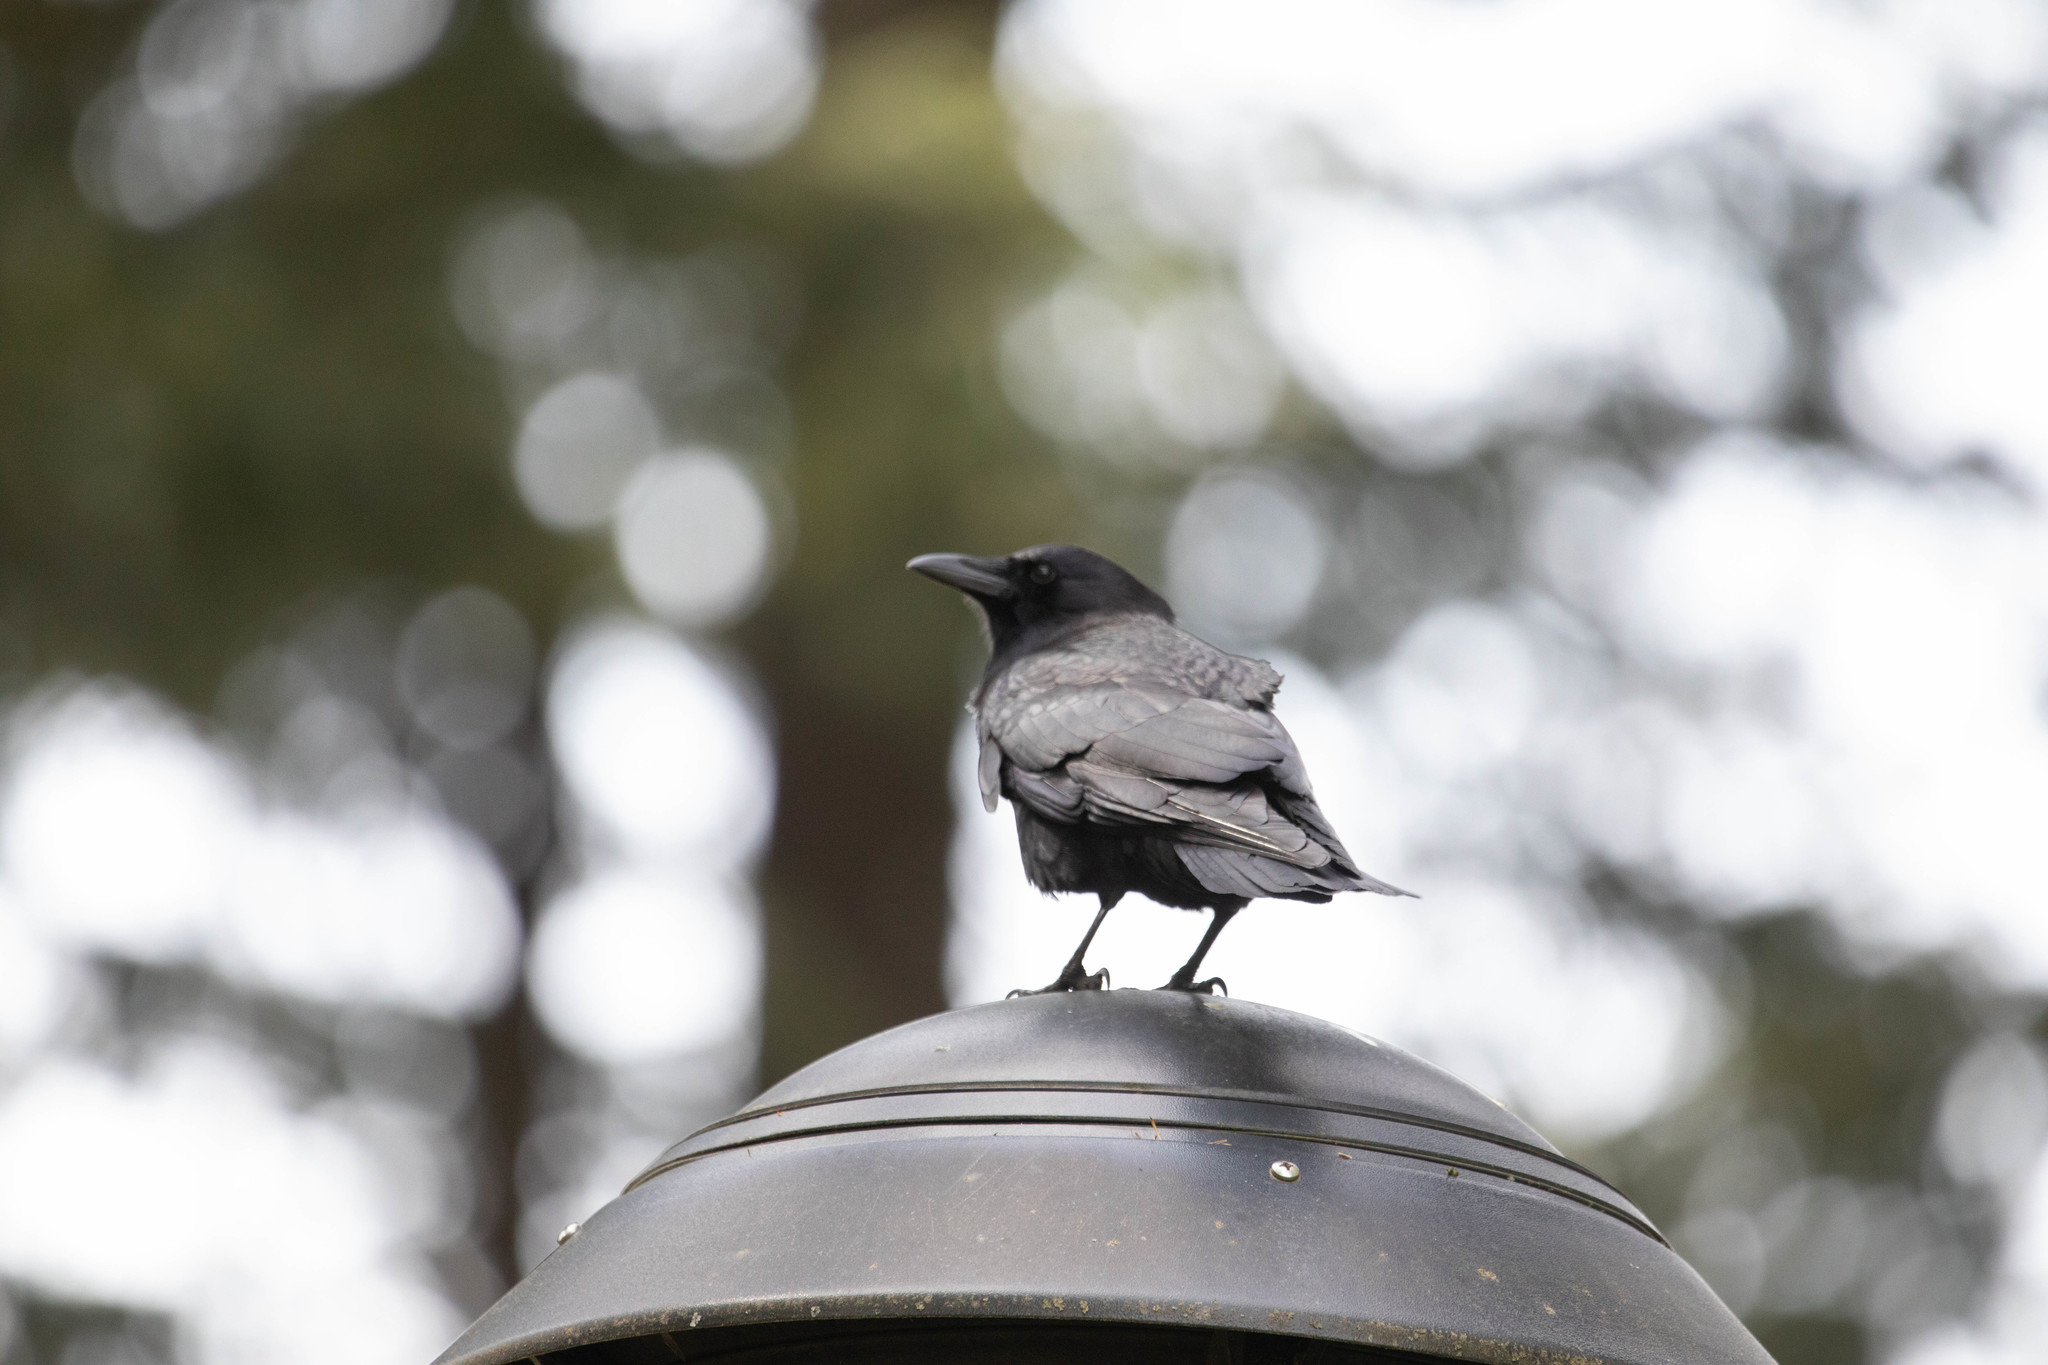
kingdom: Animalia
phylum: Chordata
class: Aves
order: Passeriformes
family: Corvidae
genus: Corvus
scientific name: Corvus brachyrhynchos
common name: American crow
